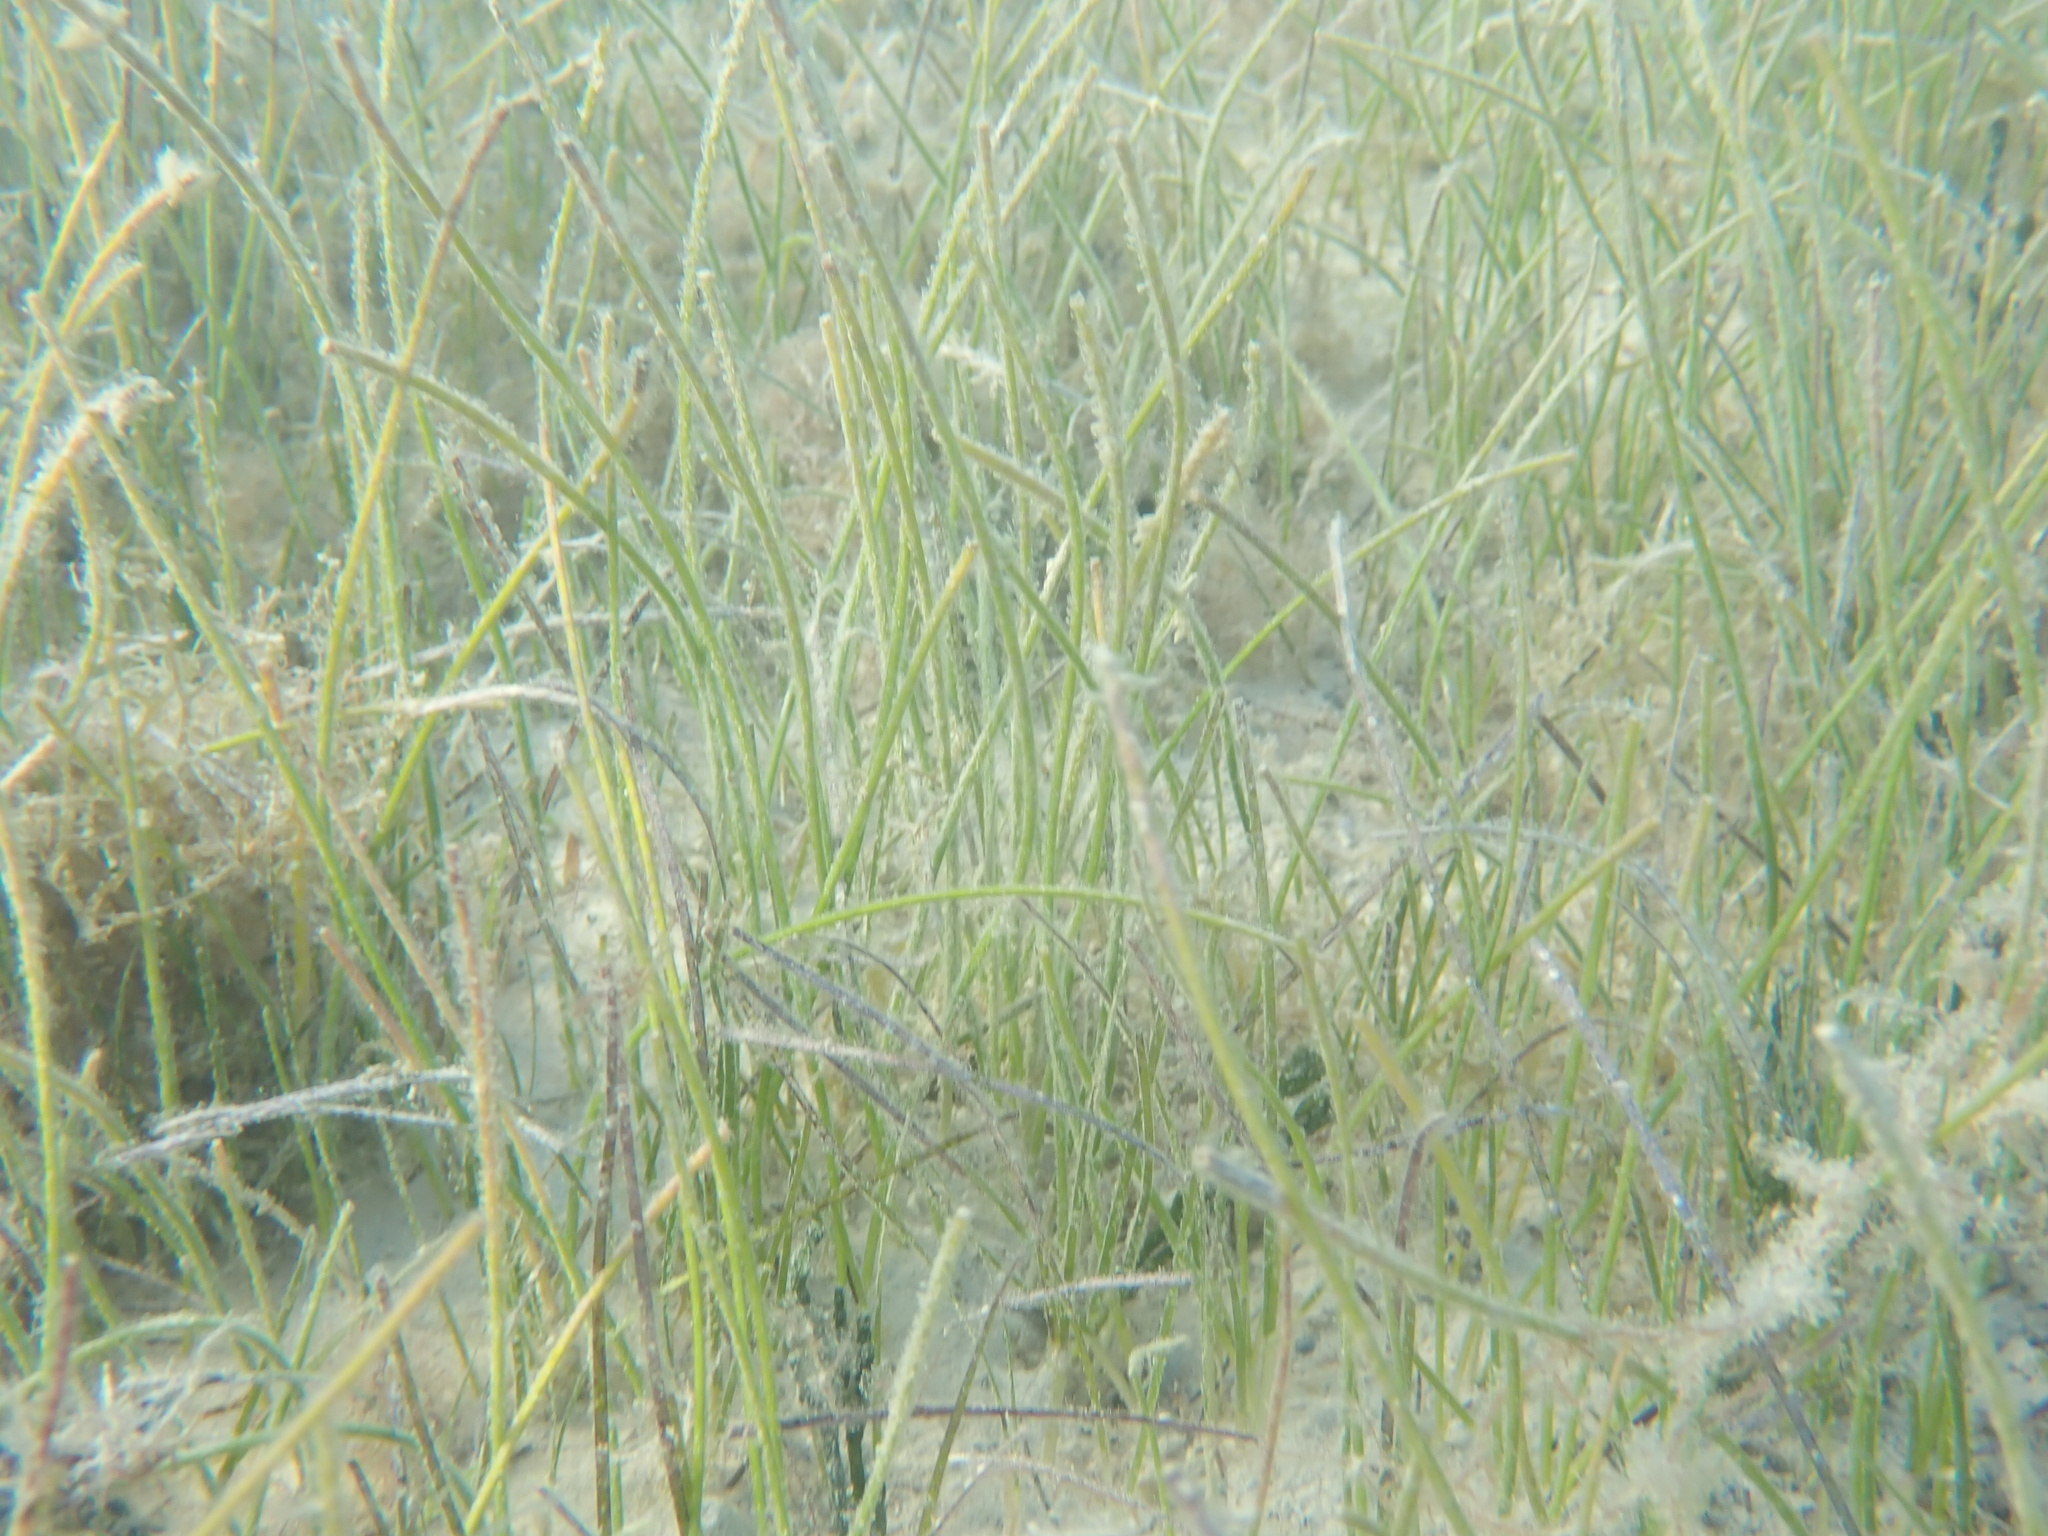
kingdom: Plantae
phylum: Tracheophyta
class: Liliopsida
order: Alismatales
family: Cymodoceaceae
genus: Syringodium
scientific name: Syringodium filiforme
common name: Manatee grass
